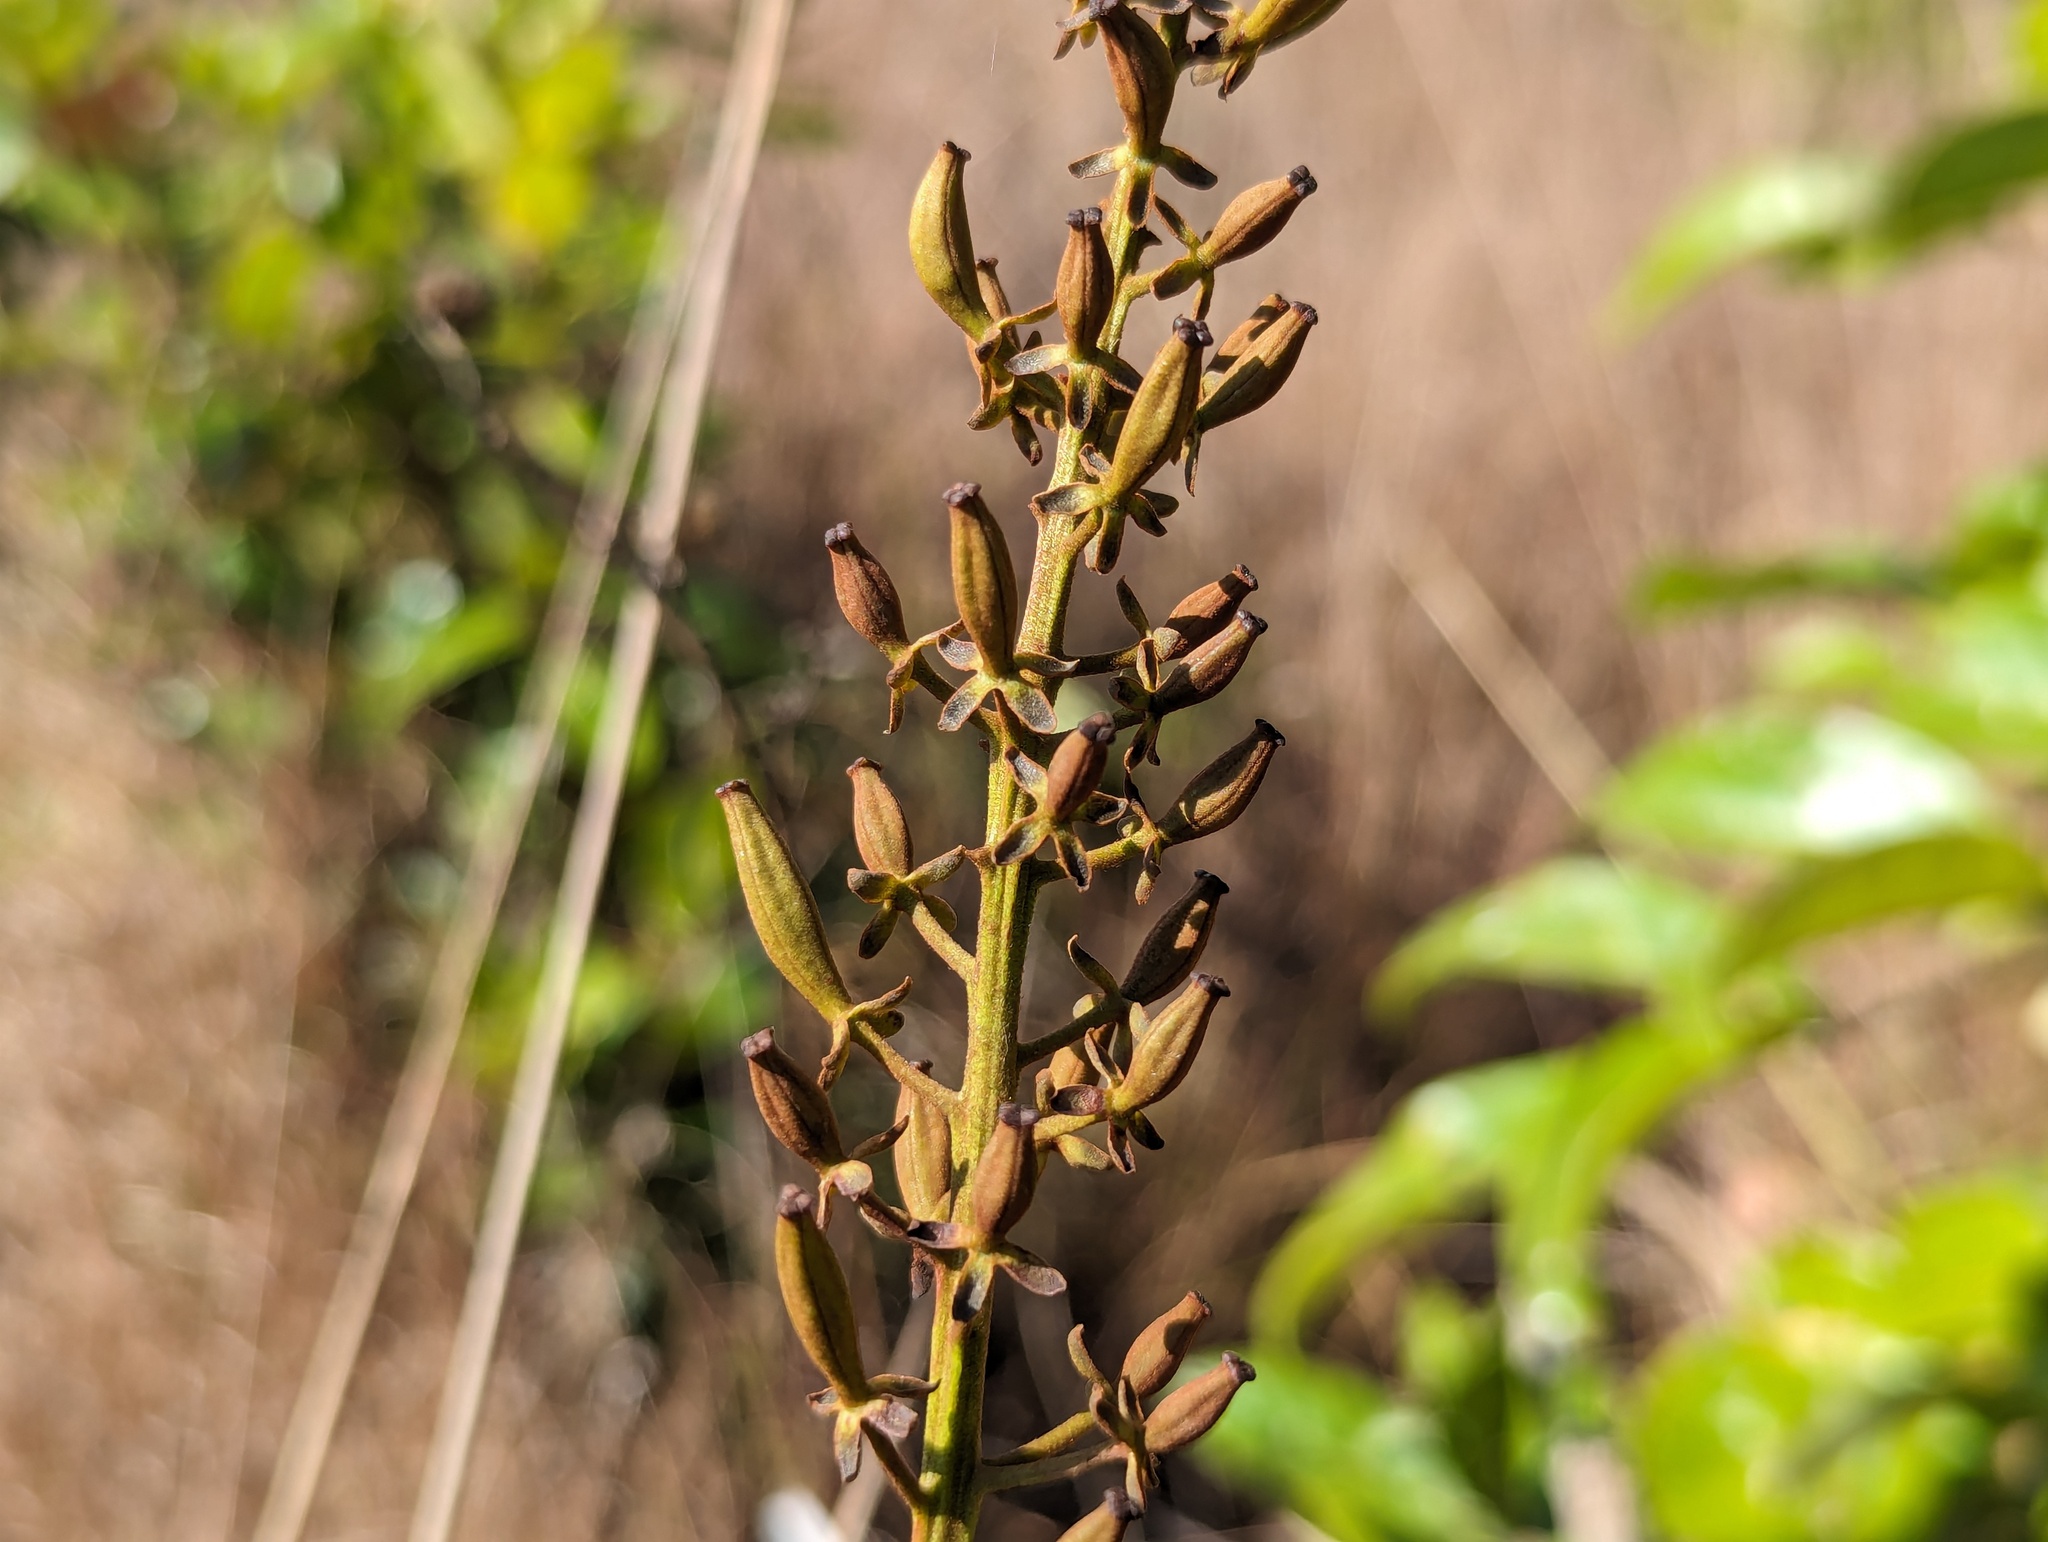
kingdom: Plantae
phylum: Tracheophyta
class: Magnoliopsida
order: Caryophyllales
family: Nepenthaceae
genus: Nepenthes
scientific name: Nepenthes abalata
